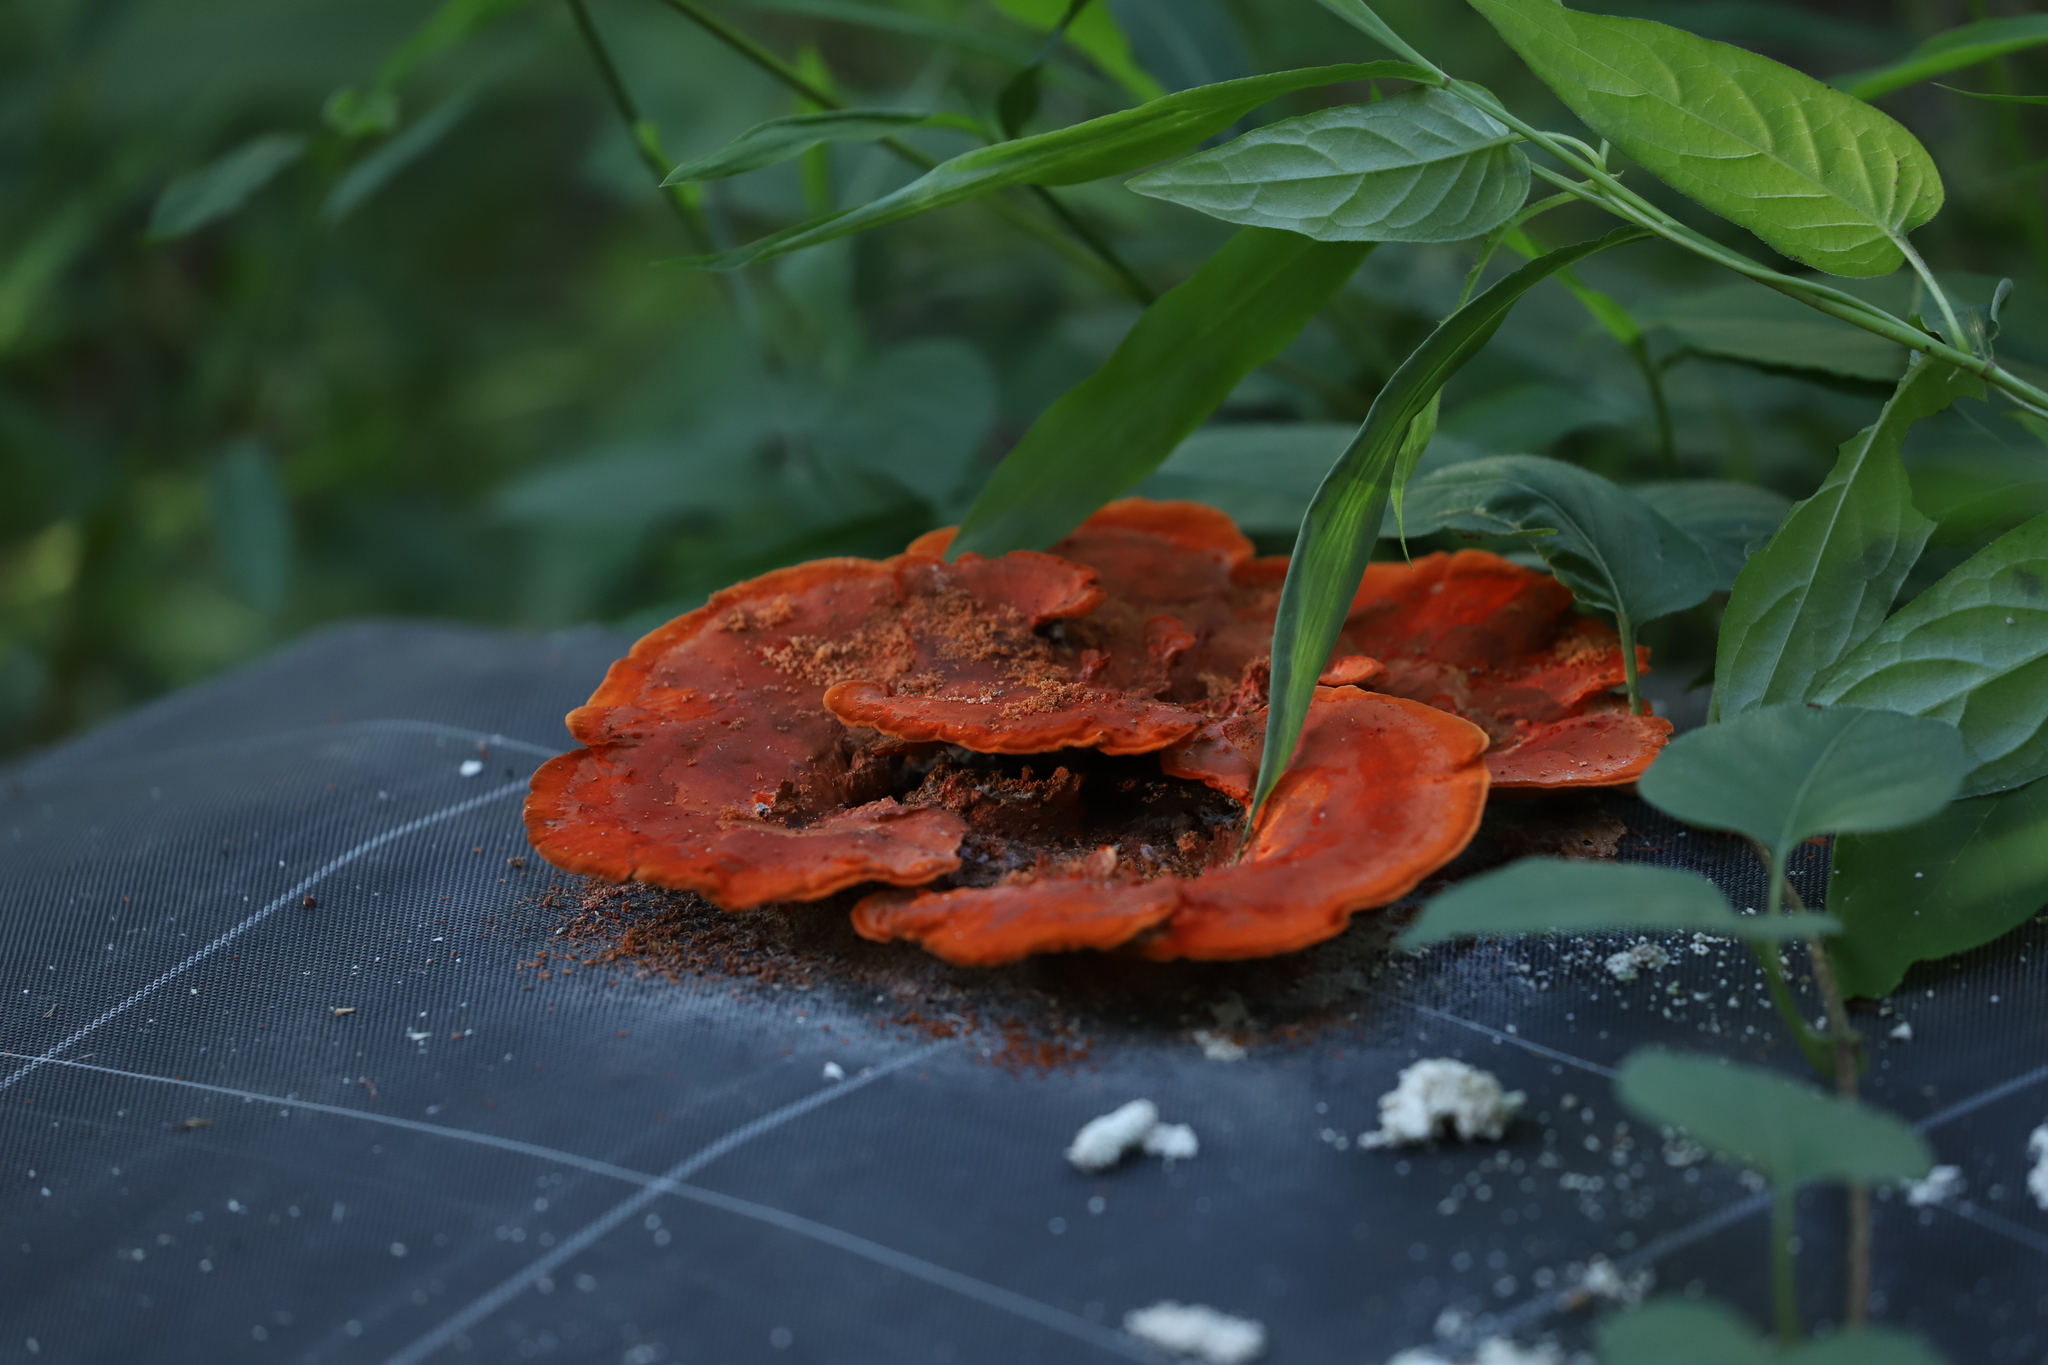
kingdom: Fungi
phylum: Basidiomycota
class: Agaricomycetes
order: Polyporales
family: Polyporaceae
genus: Trametes
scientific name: Trametes coccinea
